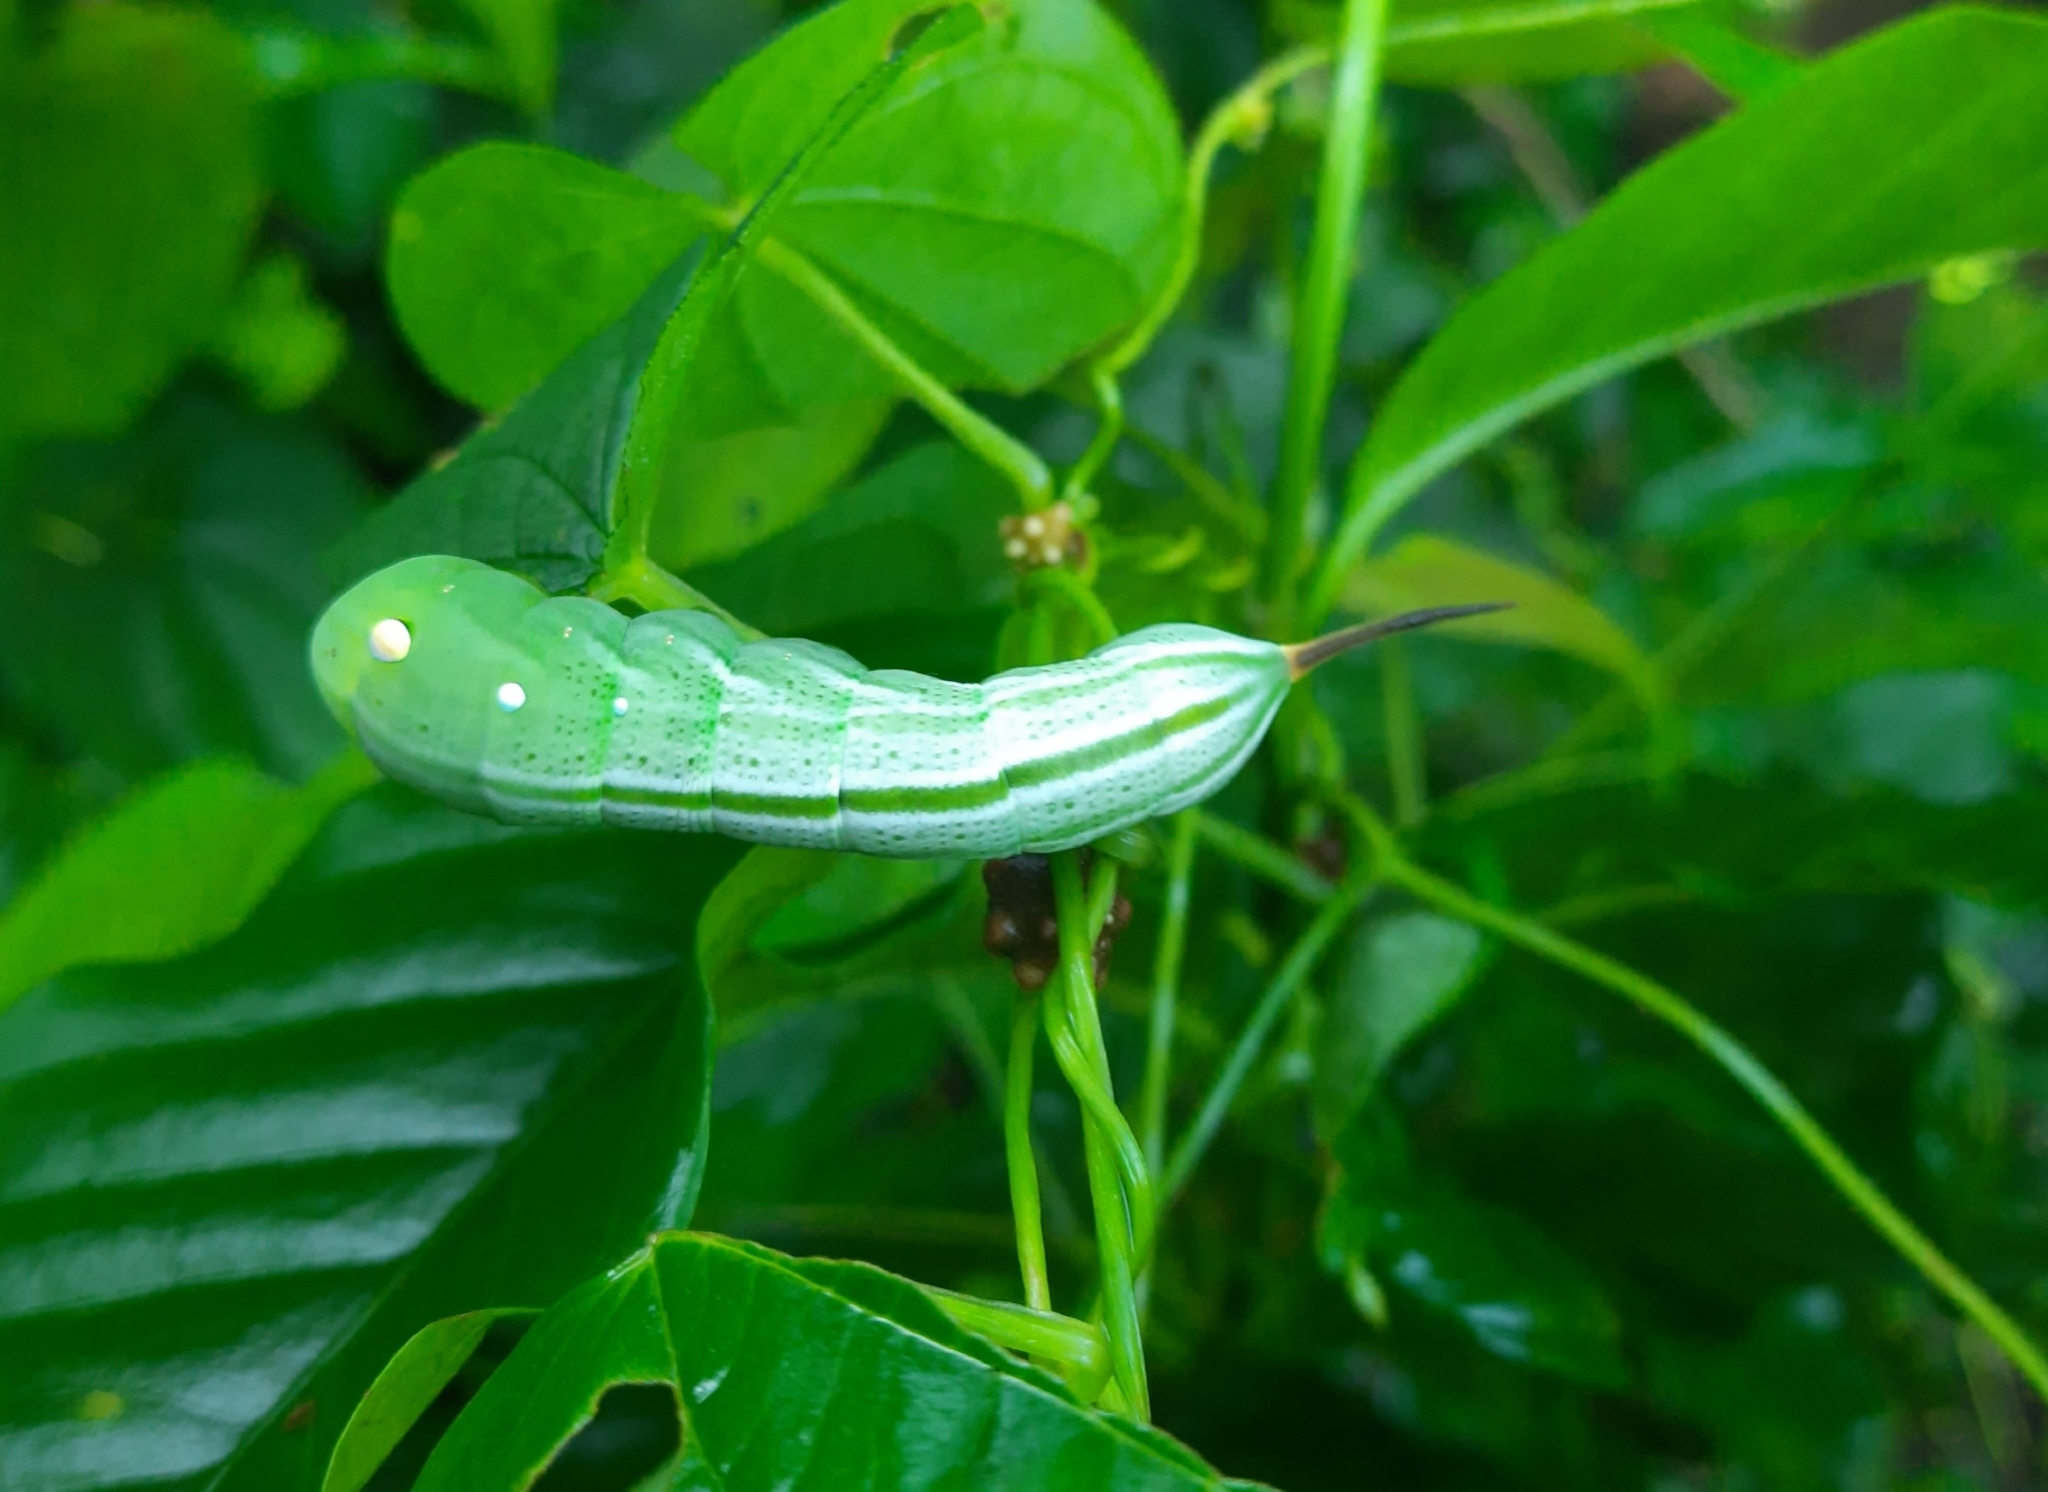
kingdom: Animalia
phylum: Arthropoda
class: Insecta
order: Lepidoptera
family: Sphingidae
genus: Theretra
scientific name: Theretra nessus
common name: Yam hawk moth
